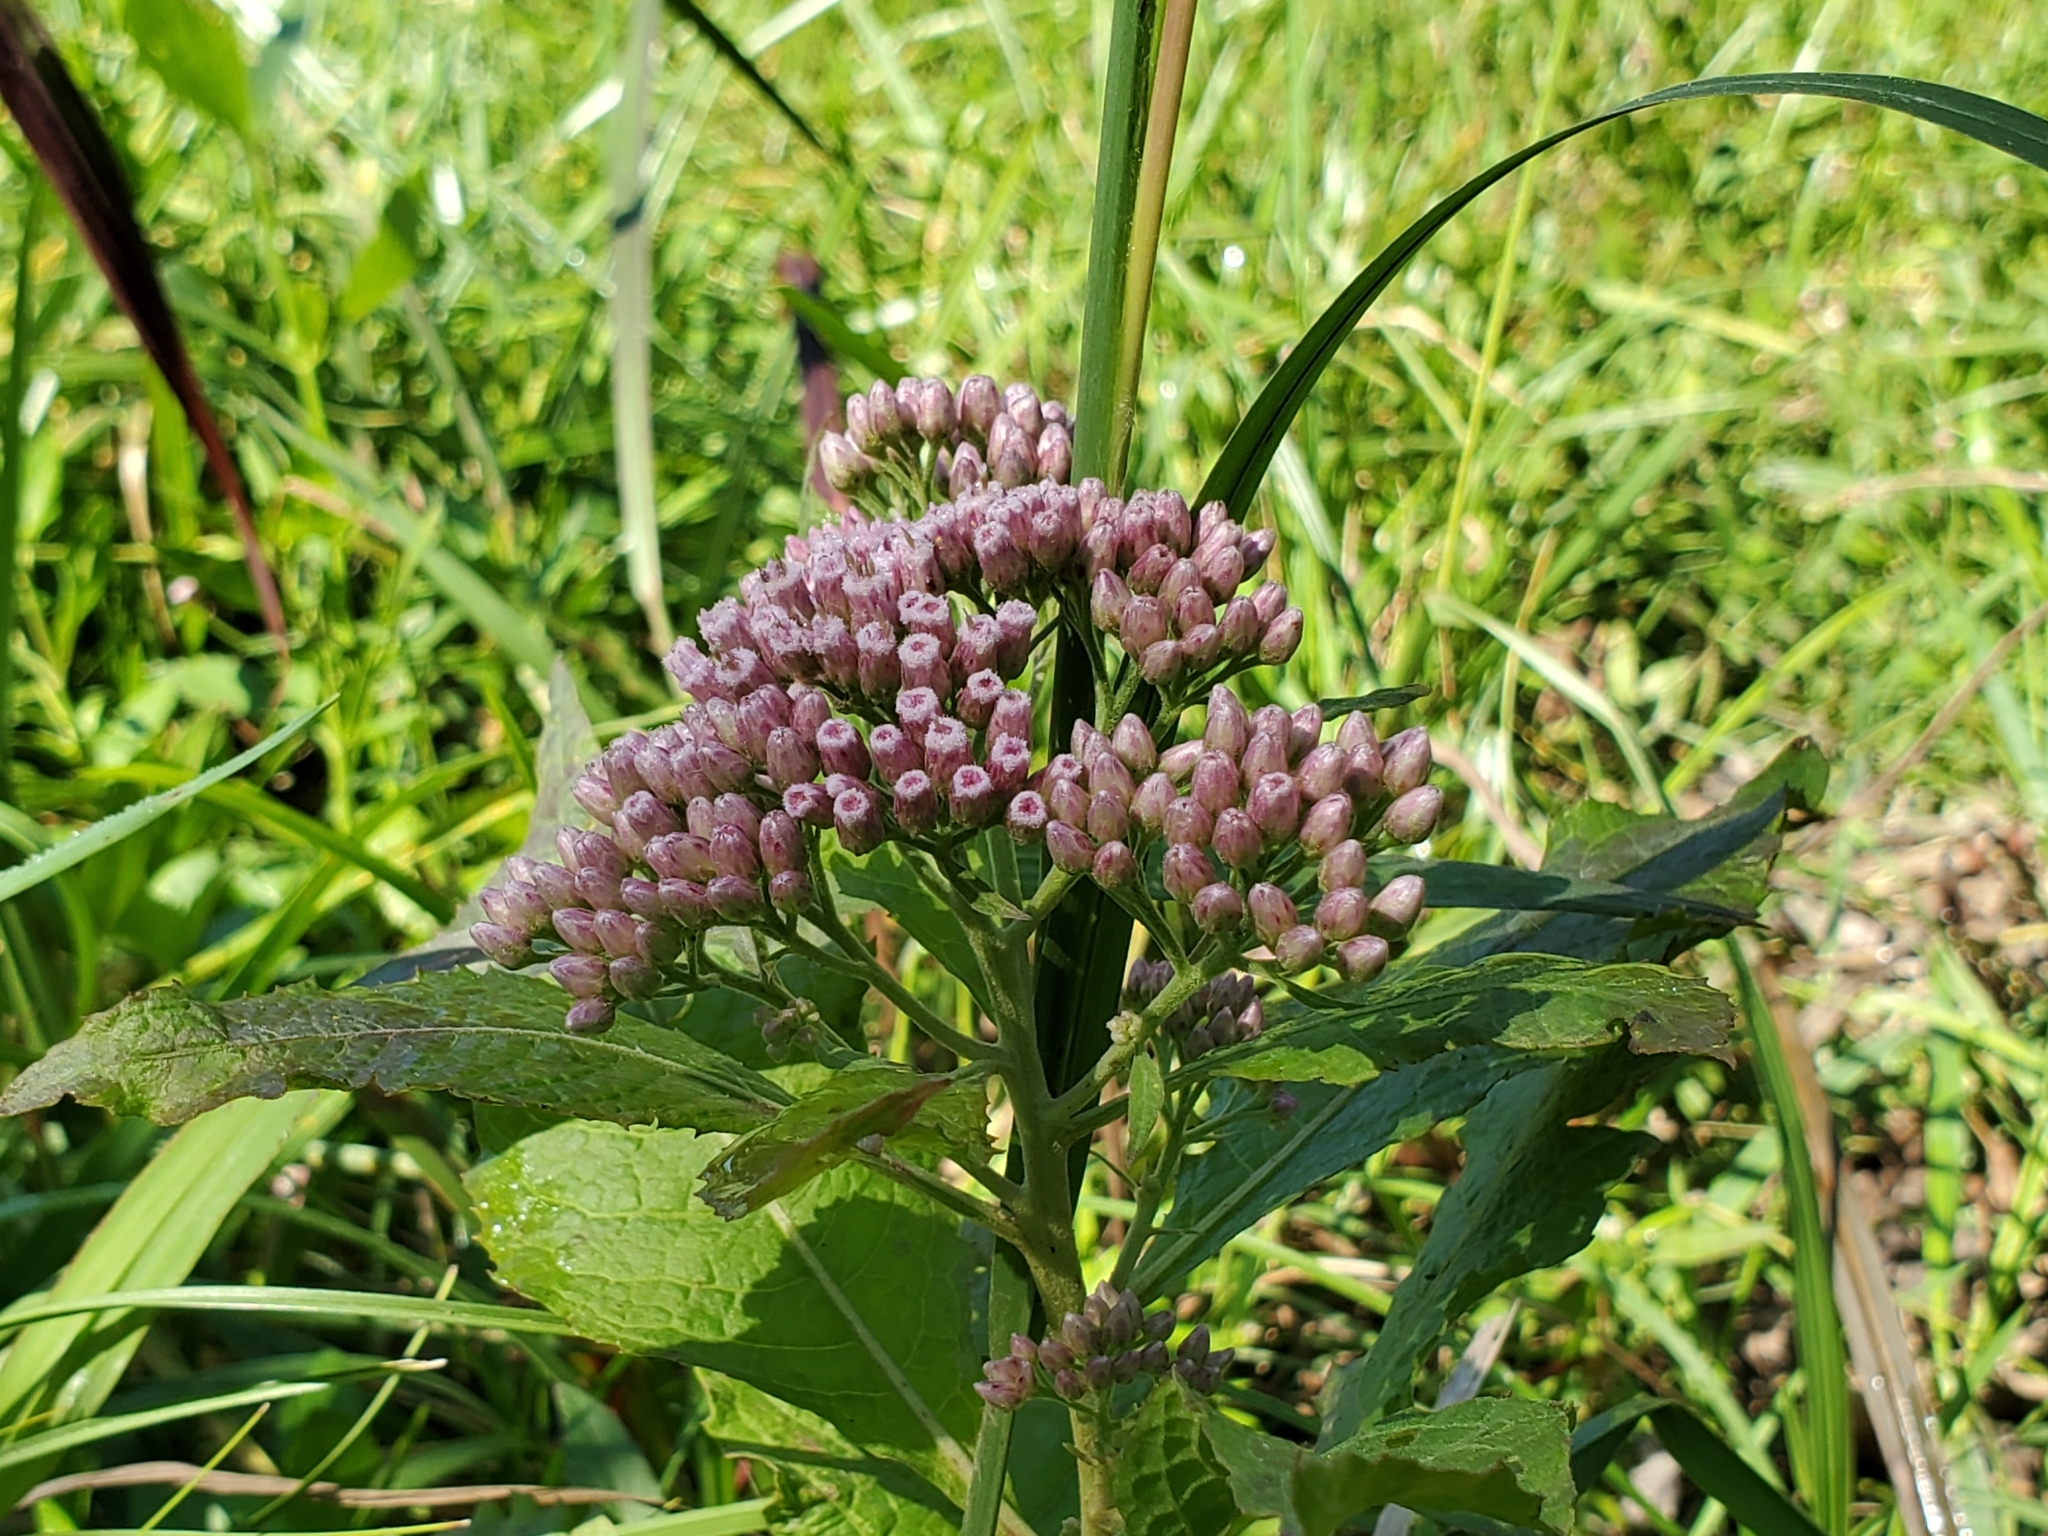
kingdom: Plantae
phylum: Tracheophyta
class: Magnoliopsida
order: Asterales
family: Asteraceae
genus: Pluchea
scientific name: Pluchea camphorata
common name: Camphor pluchea
